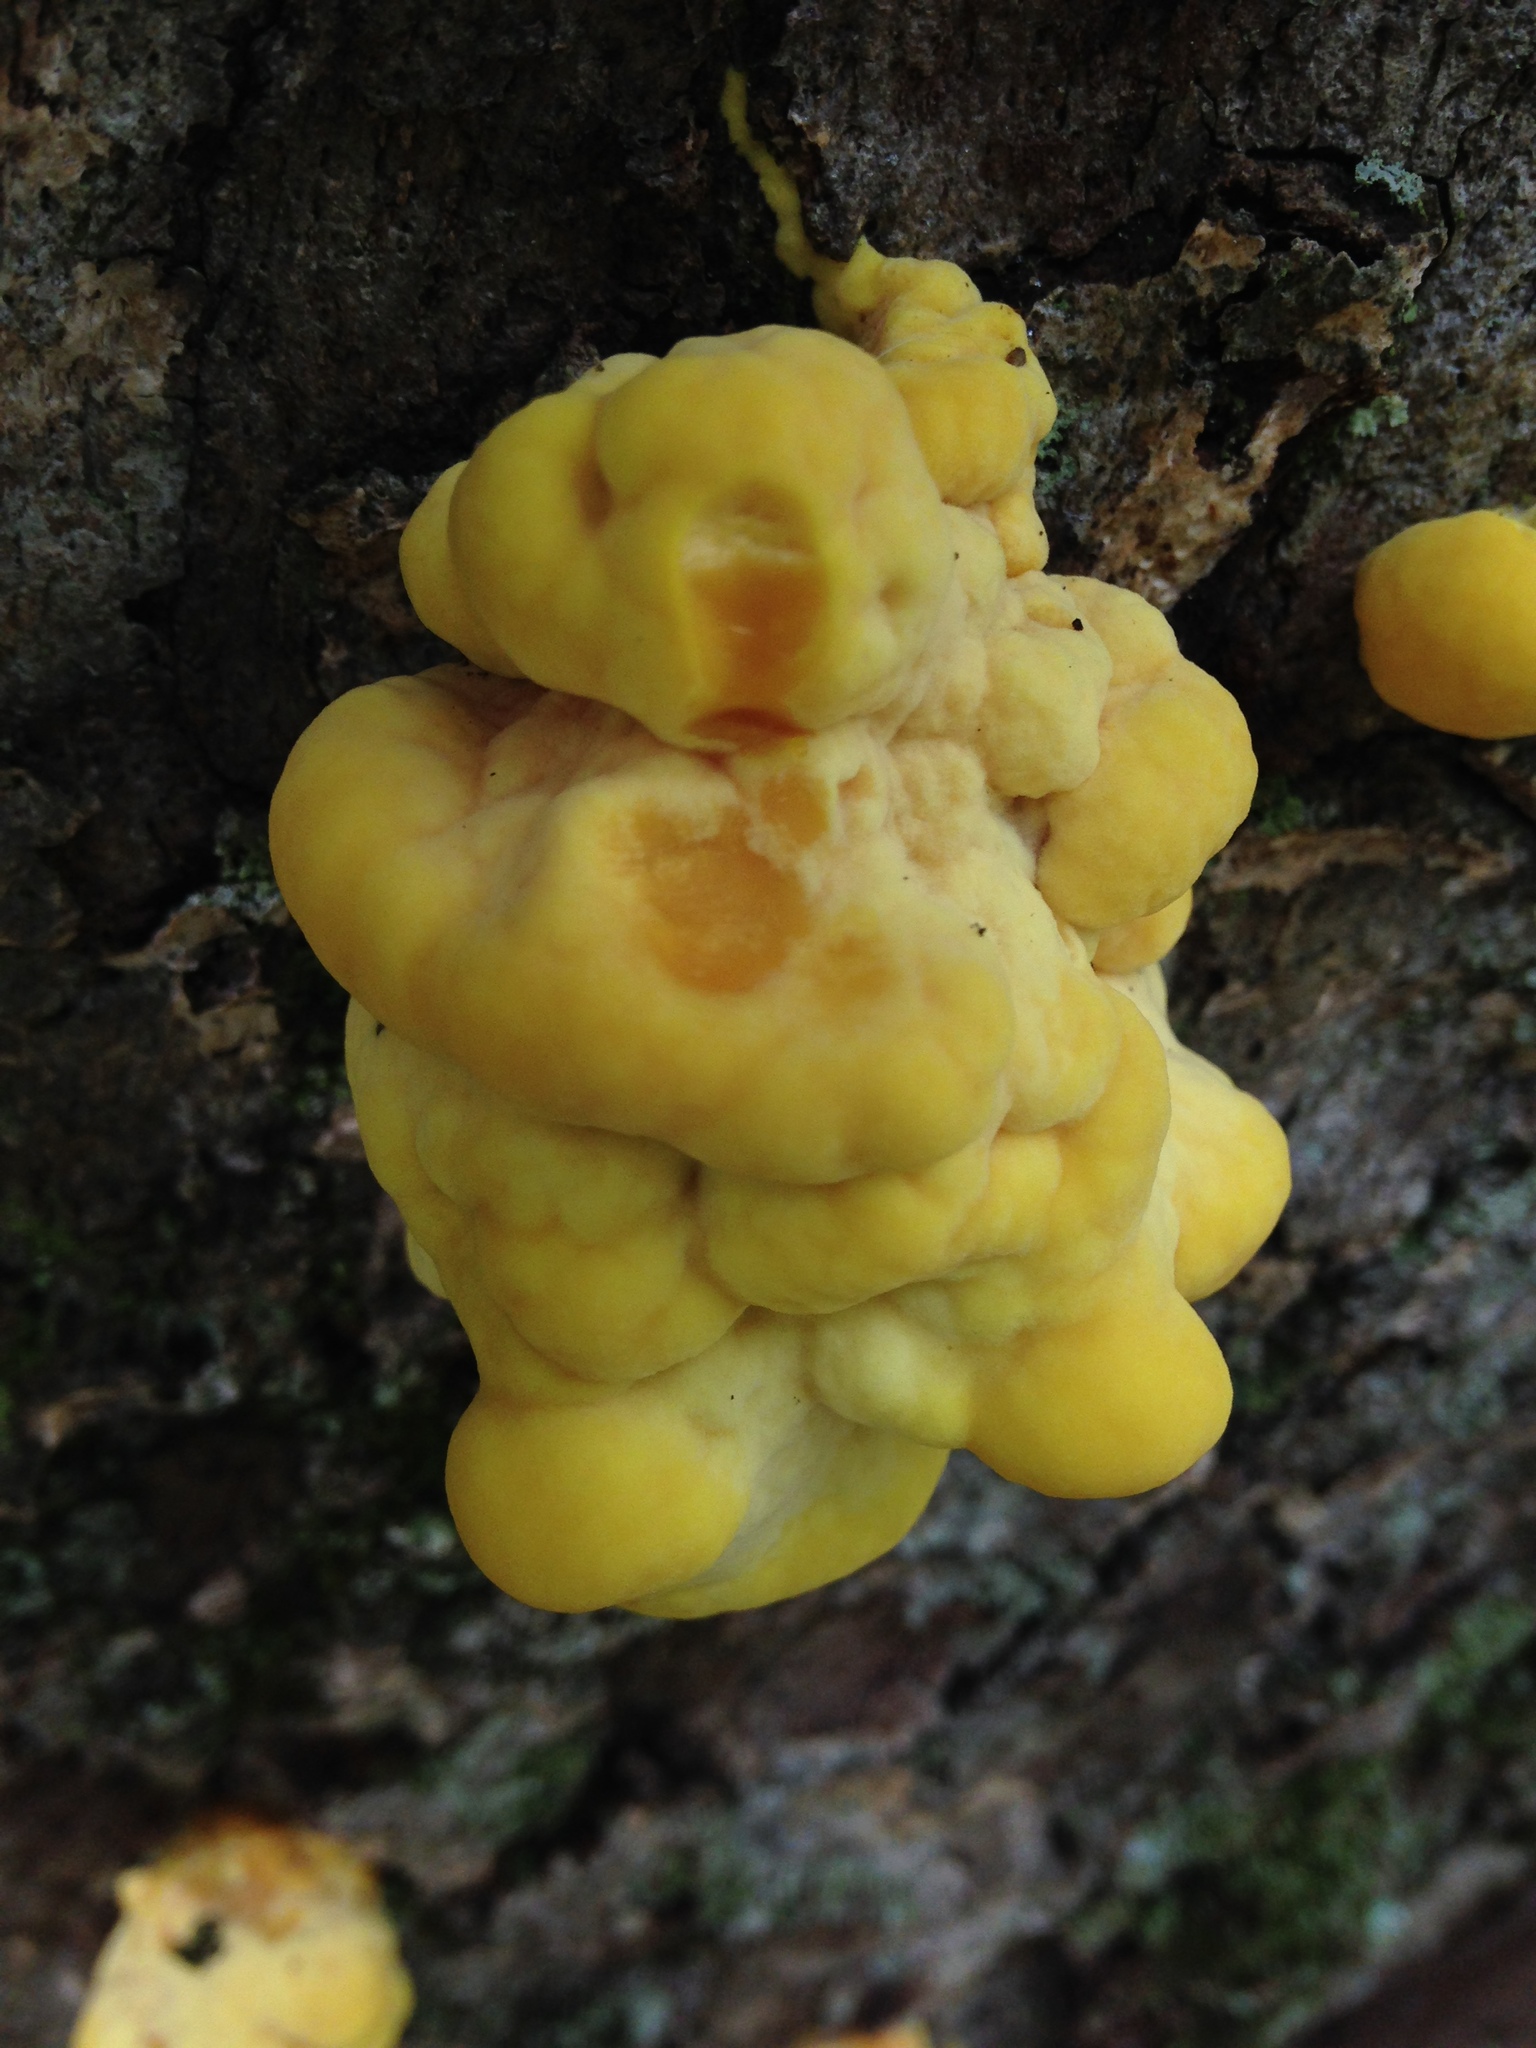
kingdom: Fungi
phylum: Basidiomycota
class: Agaricomycetes
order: Polyporales
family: Laetiporaceae
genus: Laetiporus
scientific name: Laetiporus sulphureus
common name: Chicken of the woods
